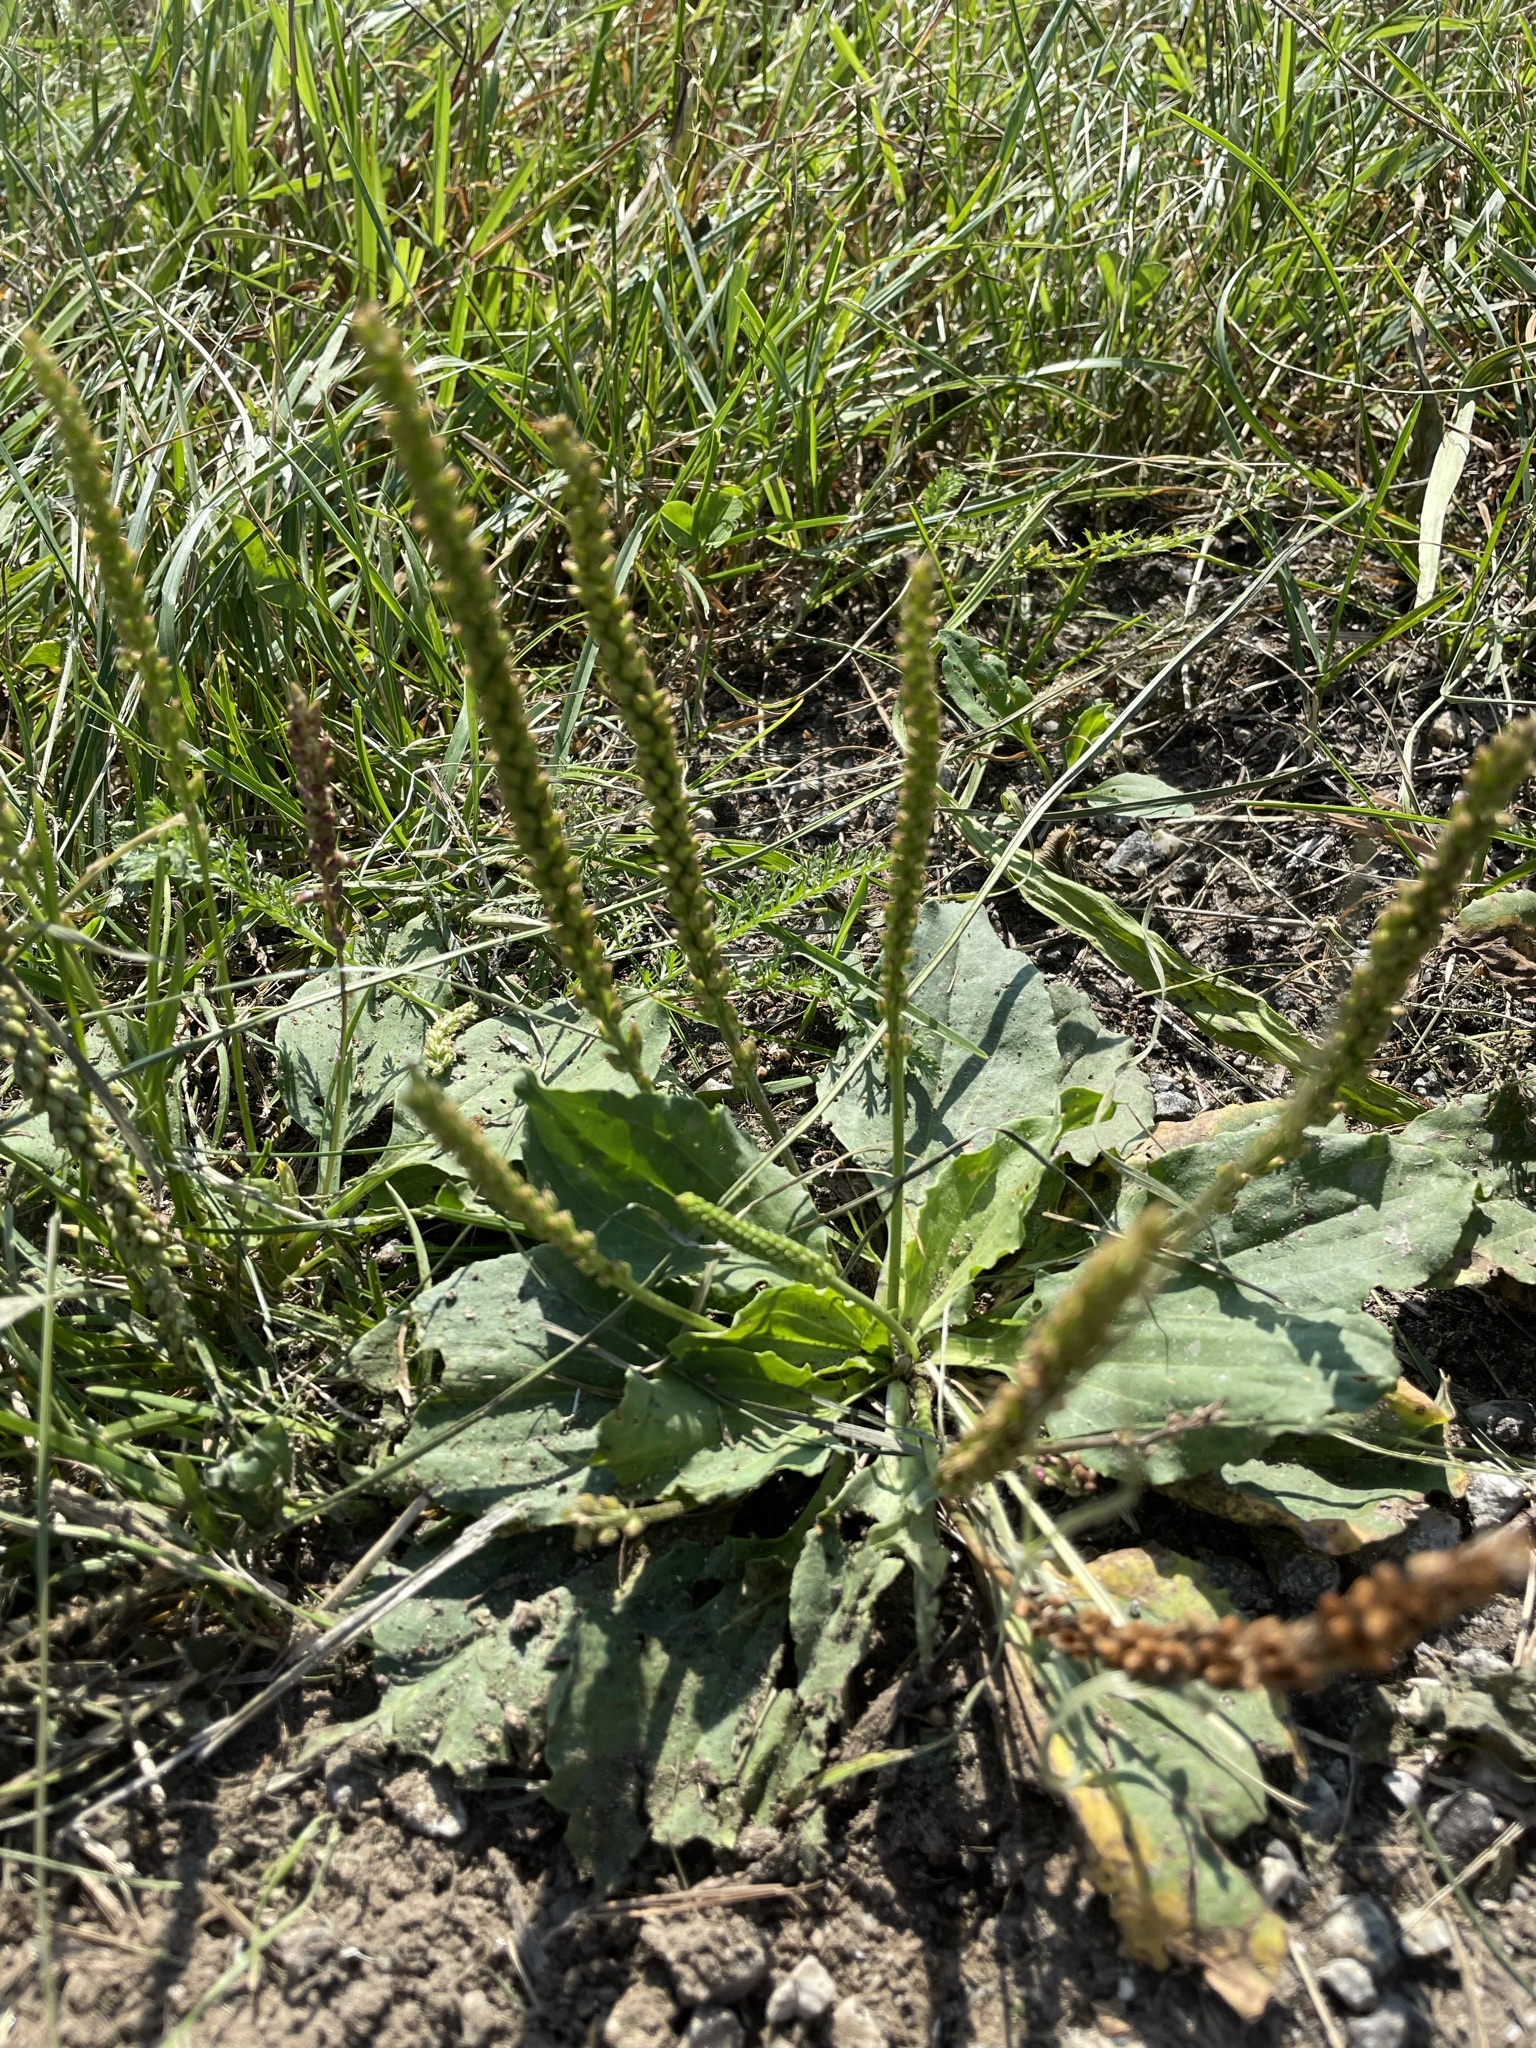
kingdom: Plantae
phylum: Tracheophyta
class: Magnoliopsida
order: Lamiales
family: Plantaginaceae
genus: Plantago
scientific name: Plantago major
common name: Common plantain
